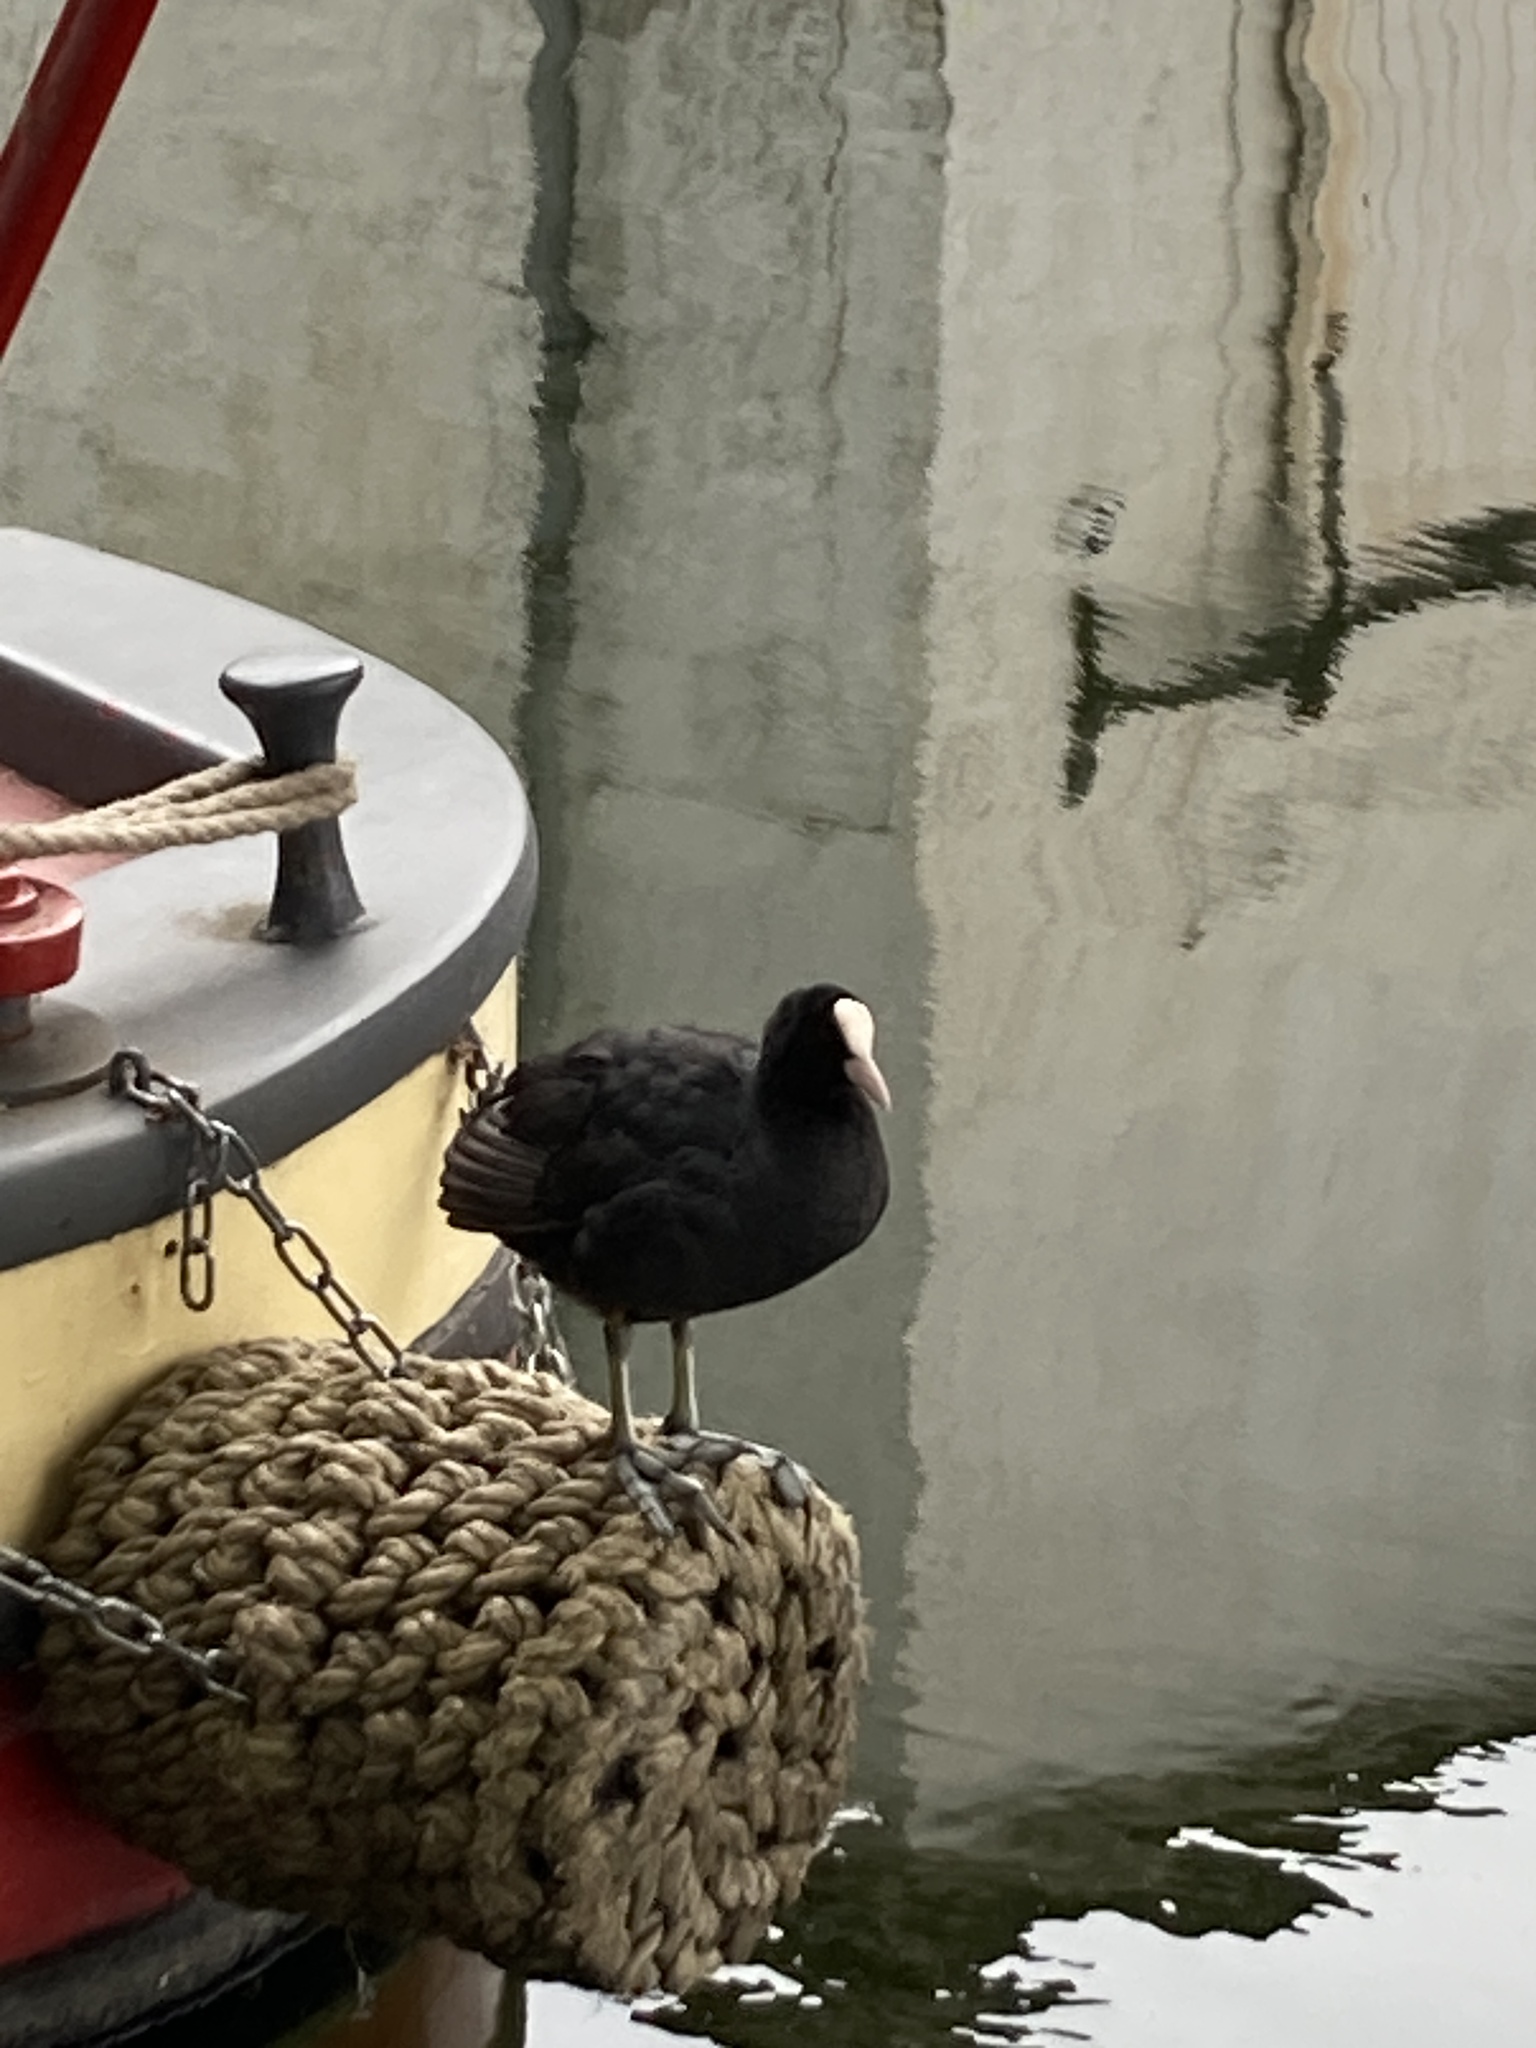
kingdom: Animalia
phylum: Chordata
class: Aves
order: Gruiformes
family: Rallidae
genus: Fulica
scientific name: Fulica atra
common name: Eurasian coot
